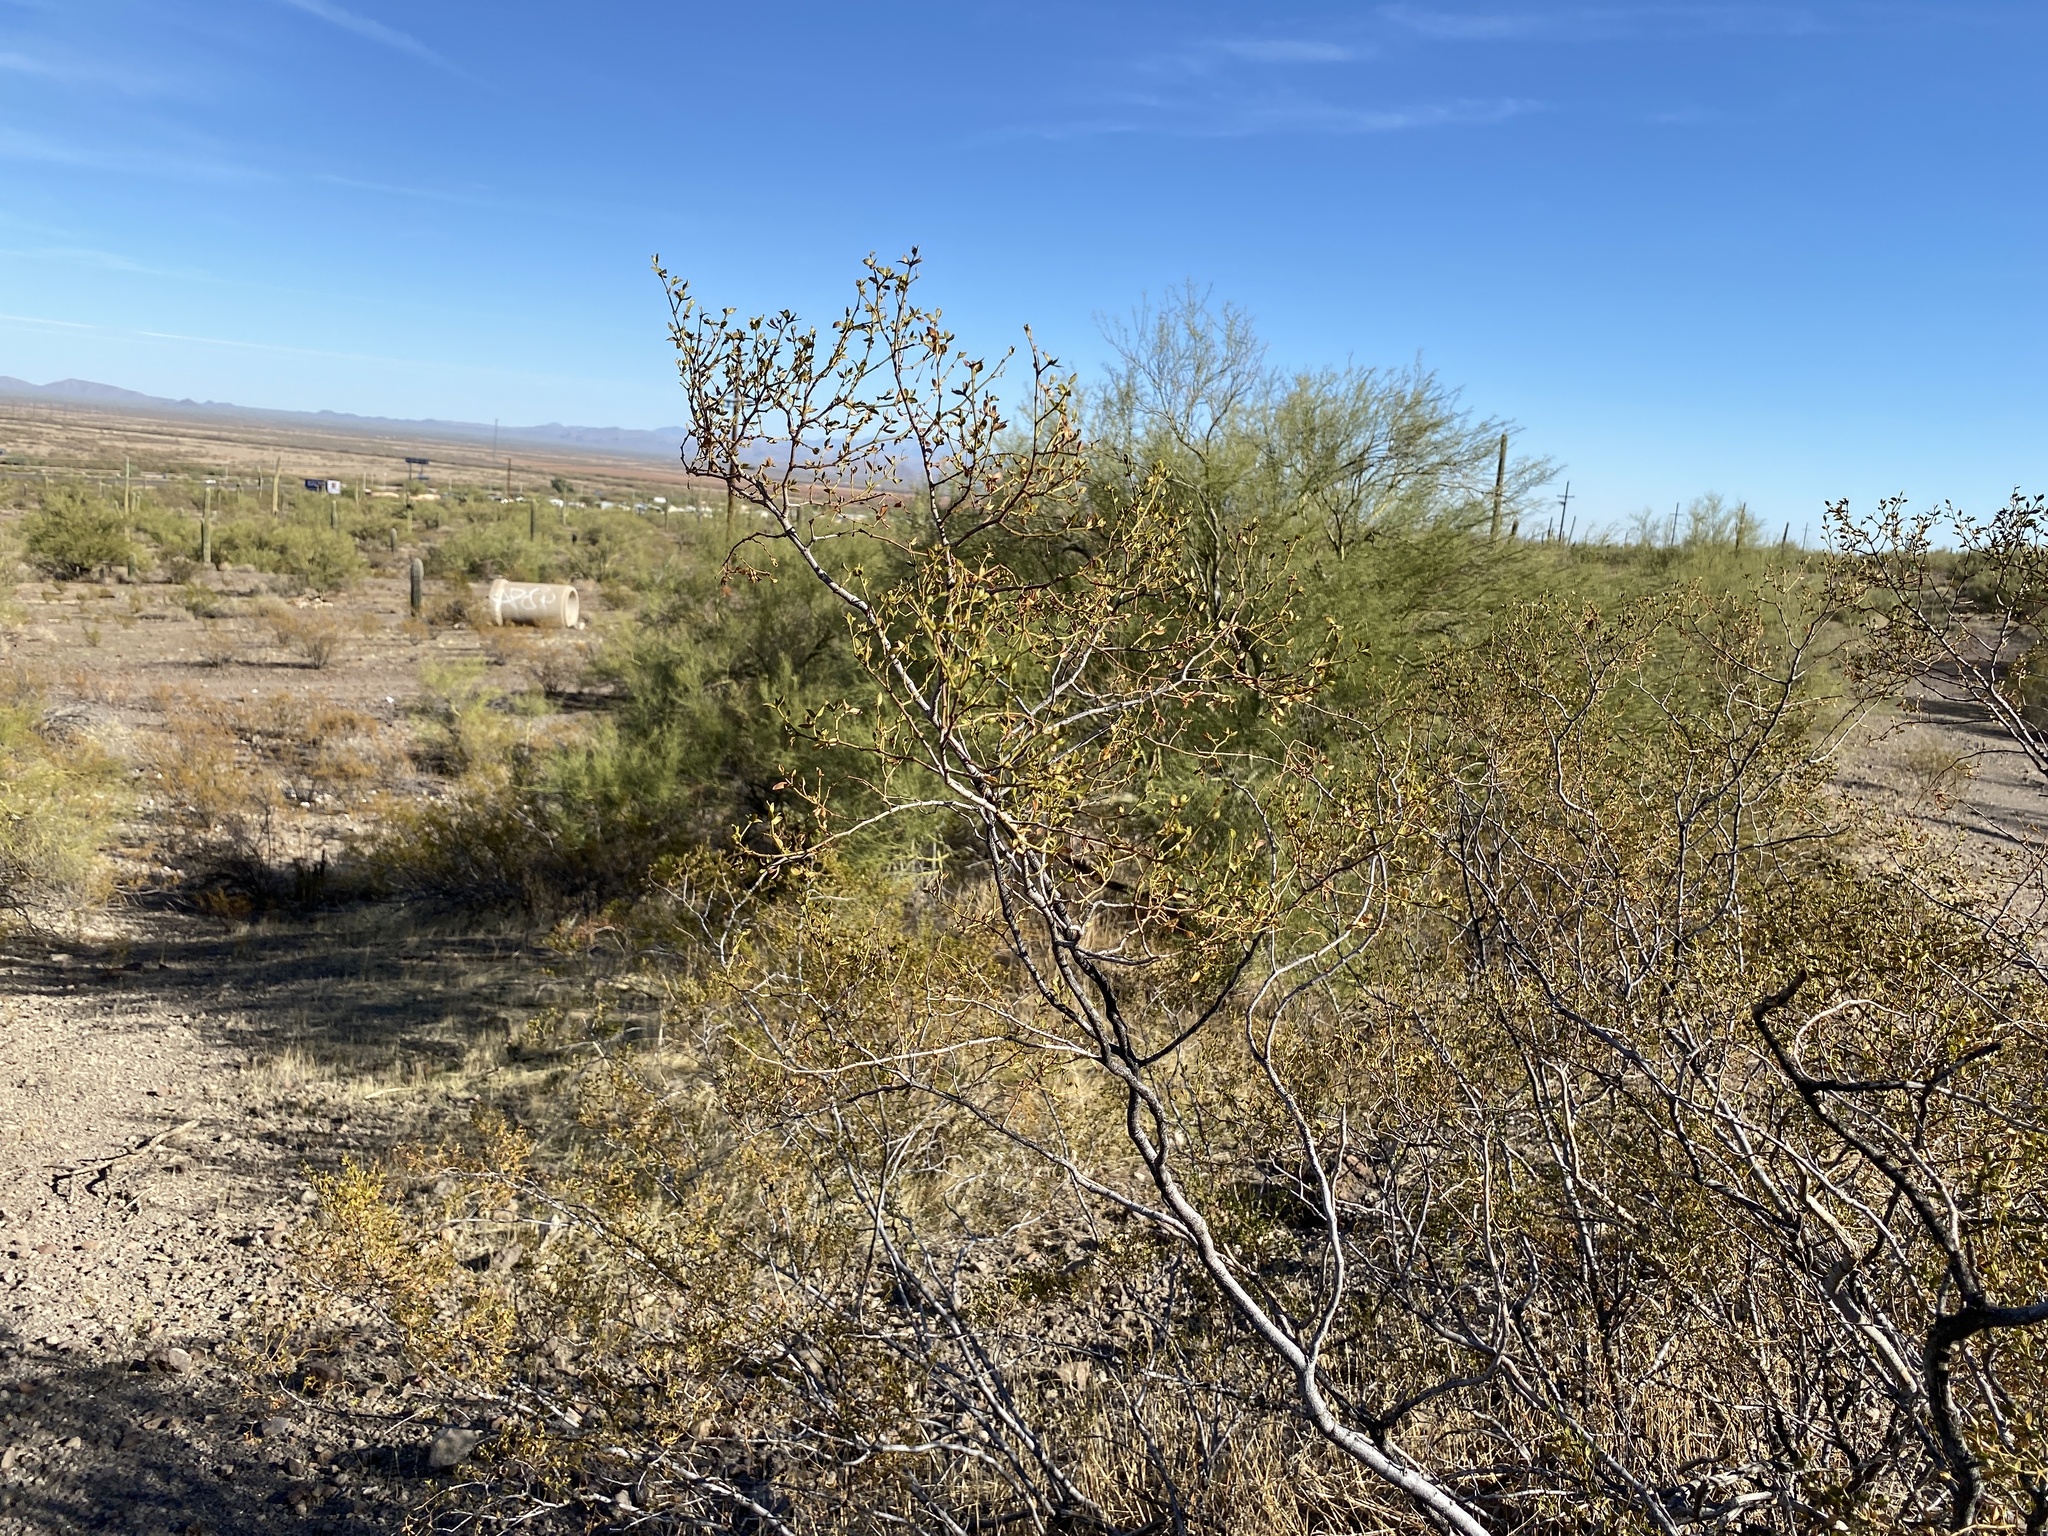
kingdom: Plantae
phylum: Tracheophyta
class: Magnoliopsida
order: Zygophyllales
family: Zygophyllaceae
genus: Larrea
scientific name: Larrea tridentata
